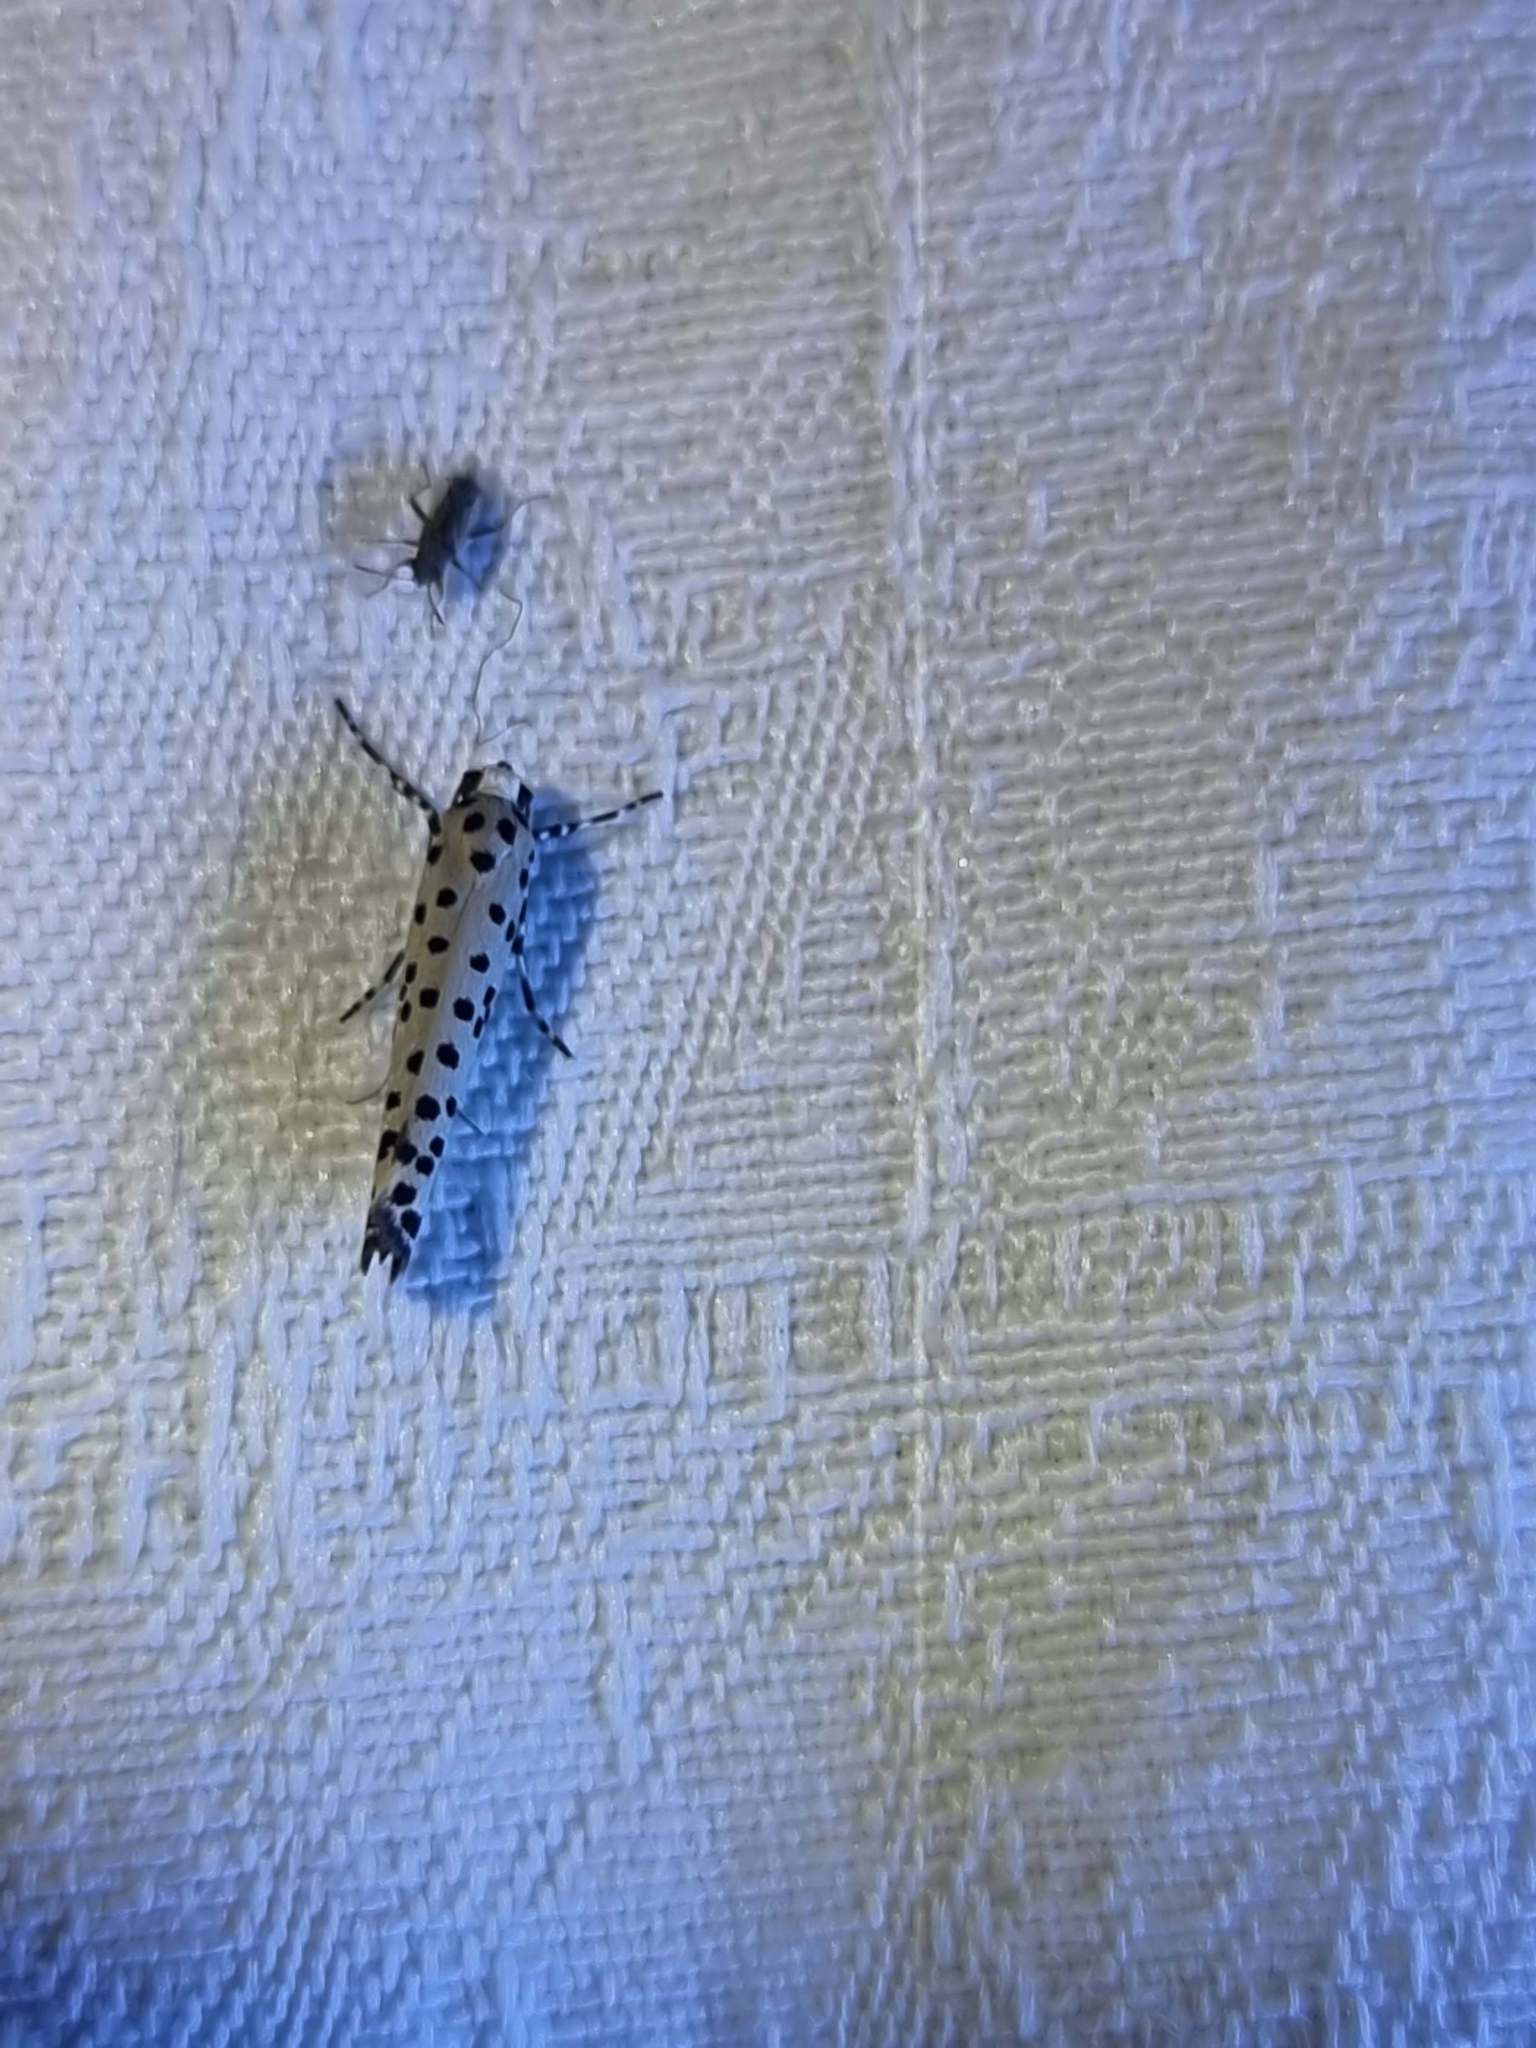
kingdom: Animalia
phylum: Arthropoda
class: Insecta
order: Lepidoptera
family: Yponomeutidae
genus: Yponomeuta
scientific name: Yponomeuta pustulellus
